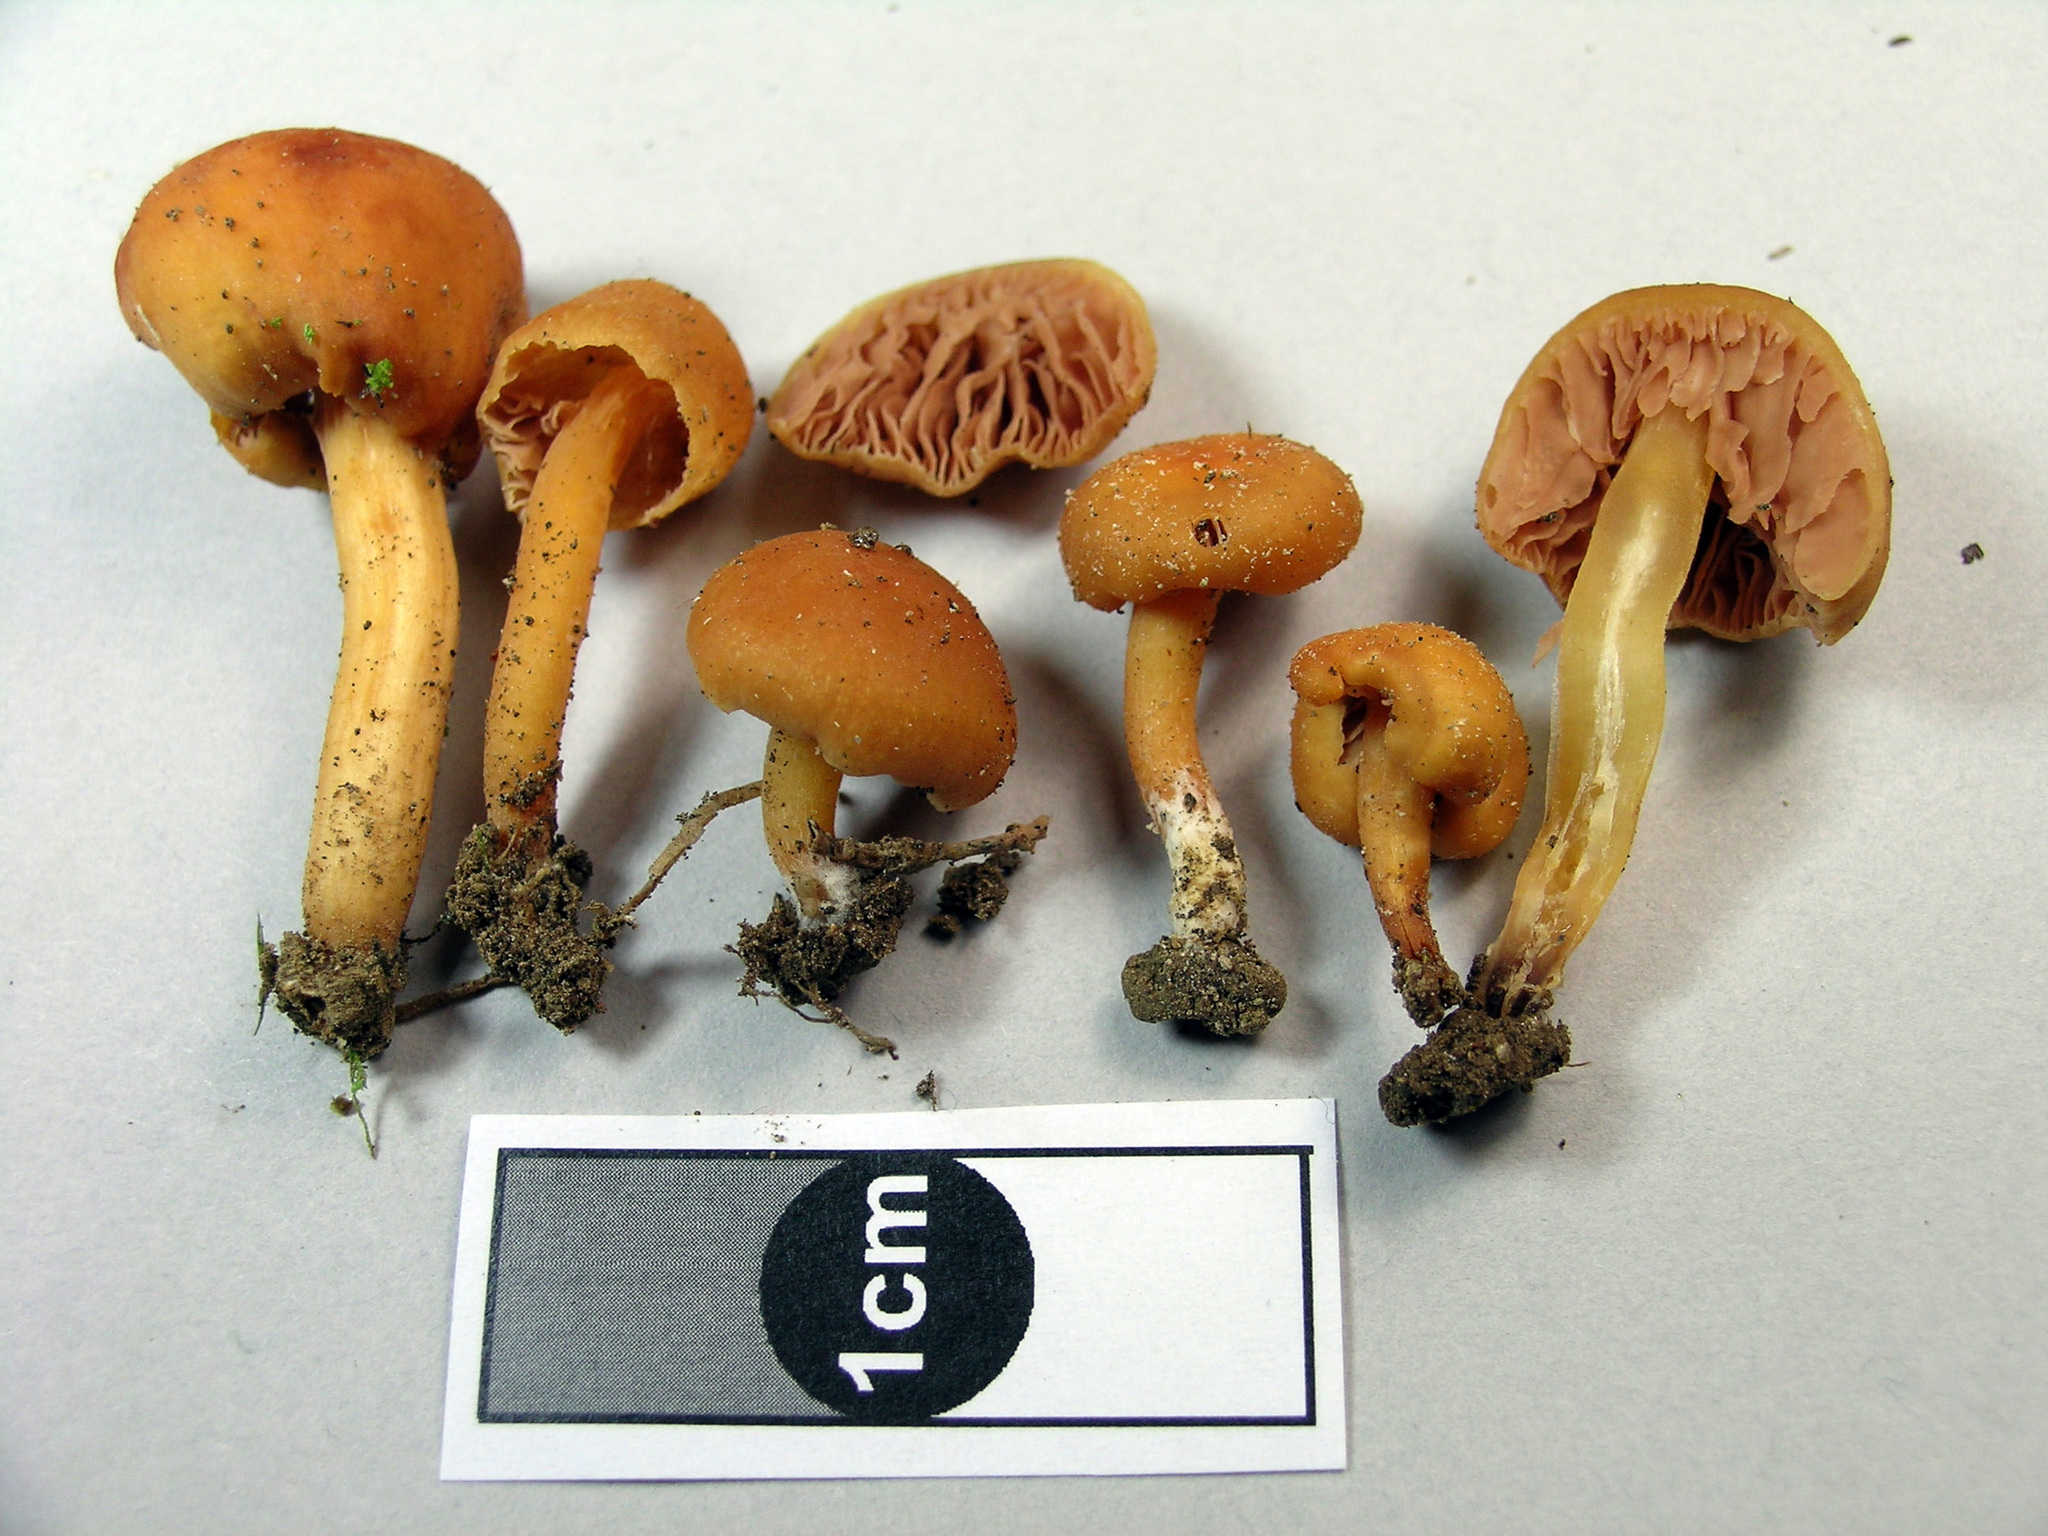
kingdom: Fungi
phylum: Basidiomycota
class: Agaricomycetes
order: Agaricales
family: Macrocystidiaceae
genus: Macrocystidia
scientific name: Macrocystidia reducta
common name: The fishy pouch
